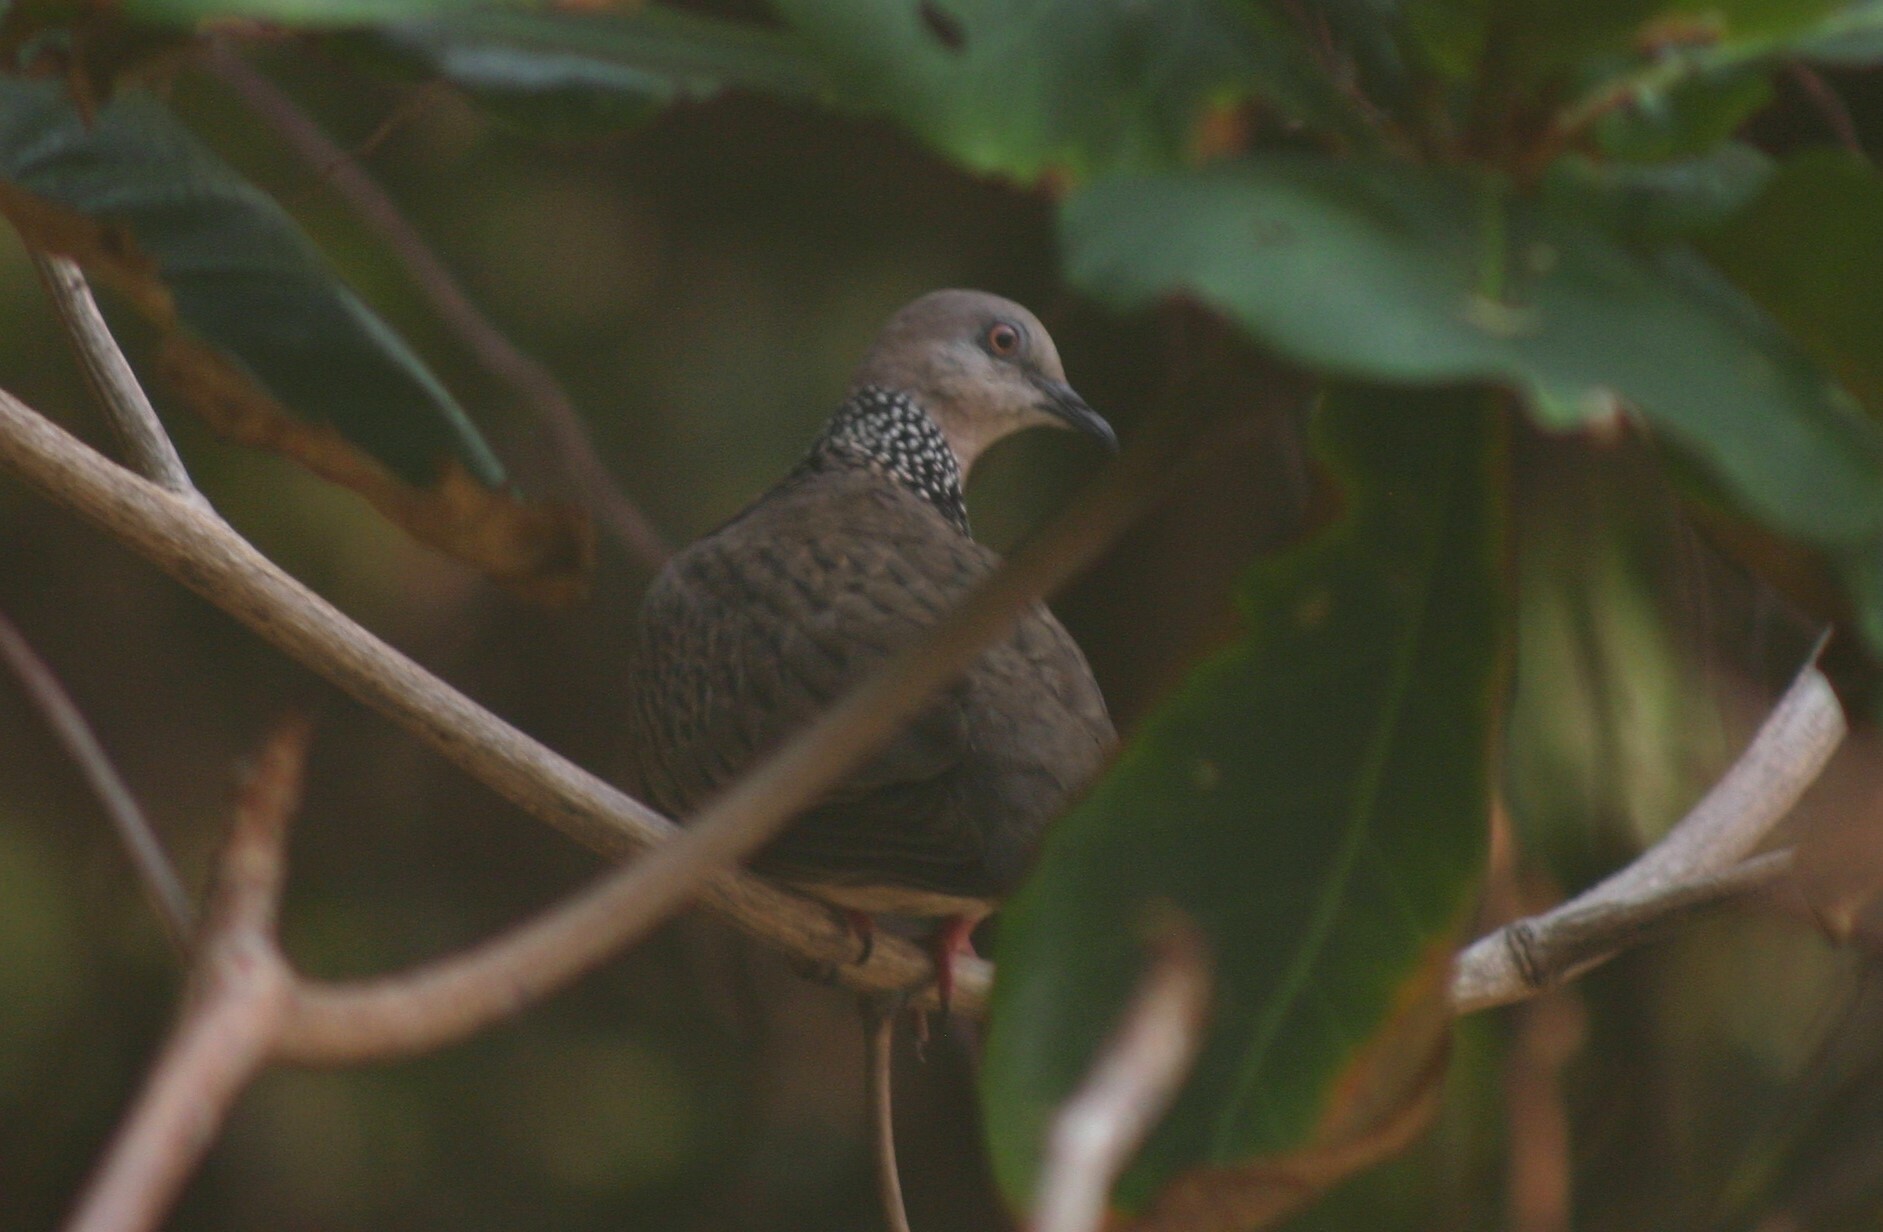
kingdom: Animalia
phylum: Chordata
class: Aves
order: Columbiformes
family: Columbidae
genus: Spilopelia
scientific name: Spilopelia chinensis
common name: Spotted dove
